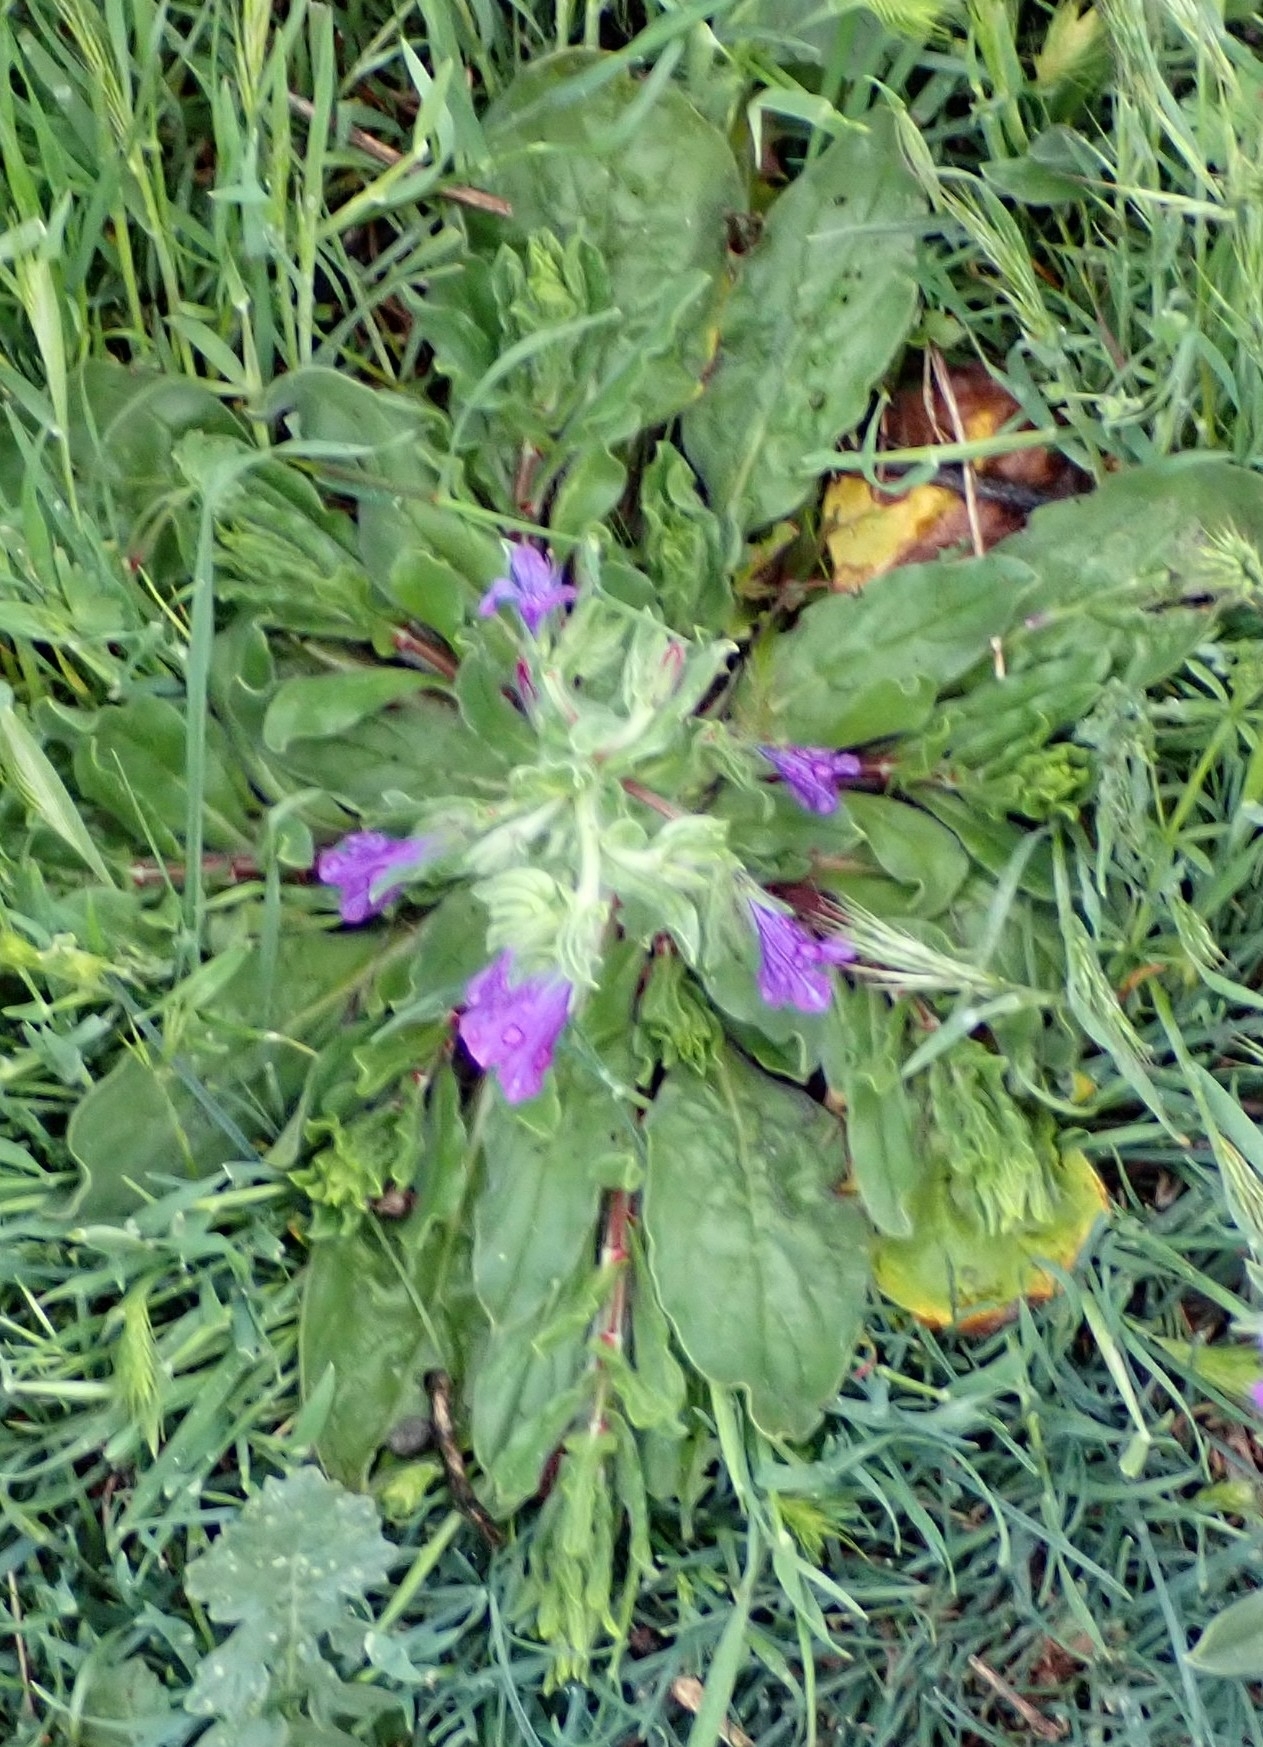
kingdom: Plantae
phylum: Tracheophyta
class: Magnoliopsida
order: Boraginales
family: Boraginaceae
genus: Echium
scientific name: Echium plantagineum
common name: Purple viper's-bugloss
